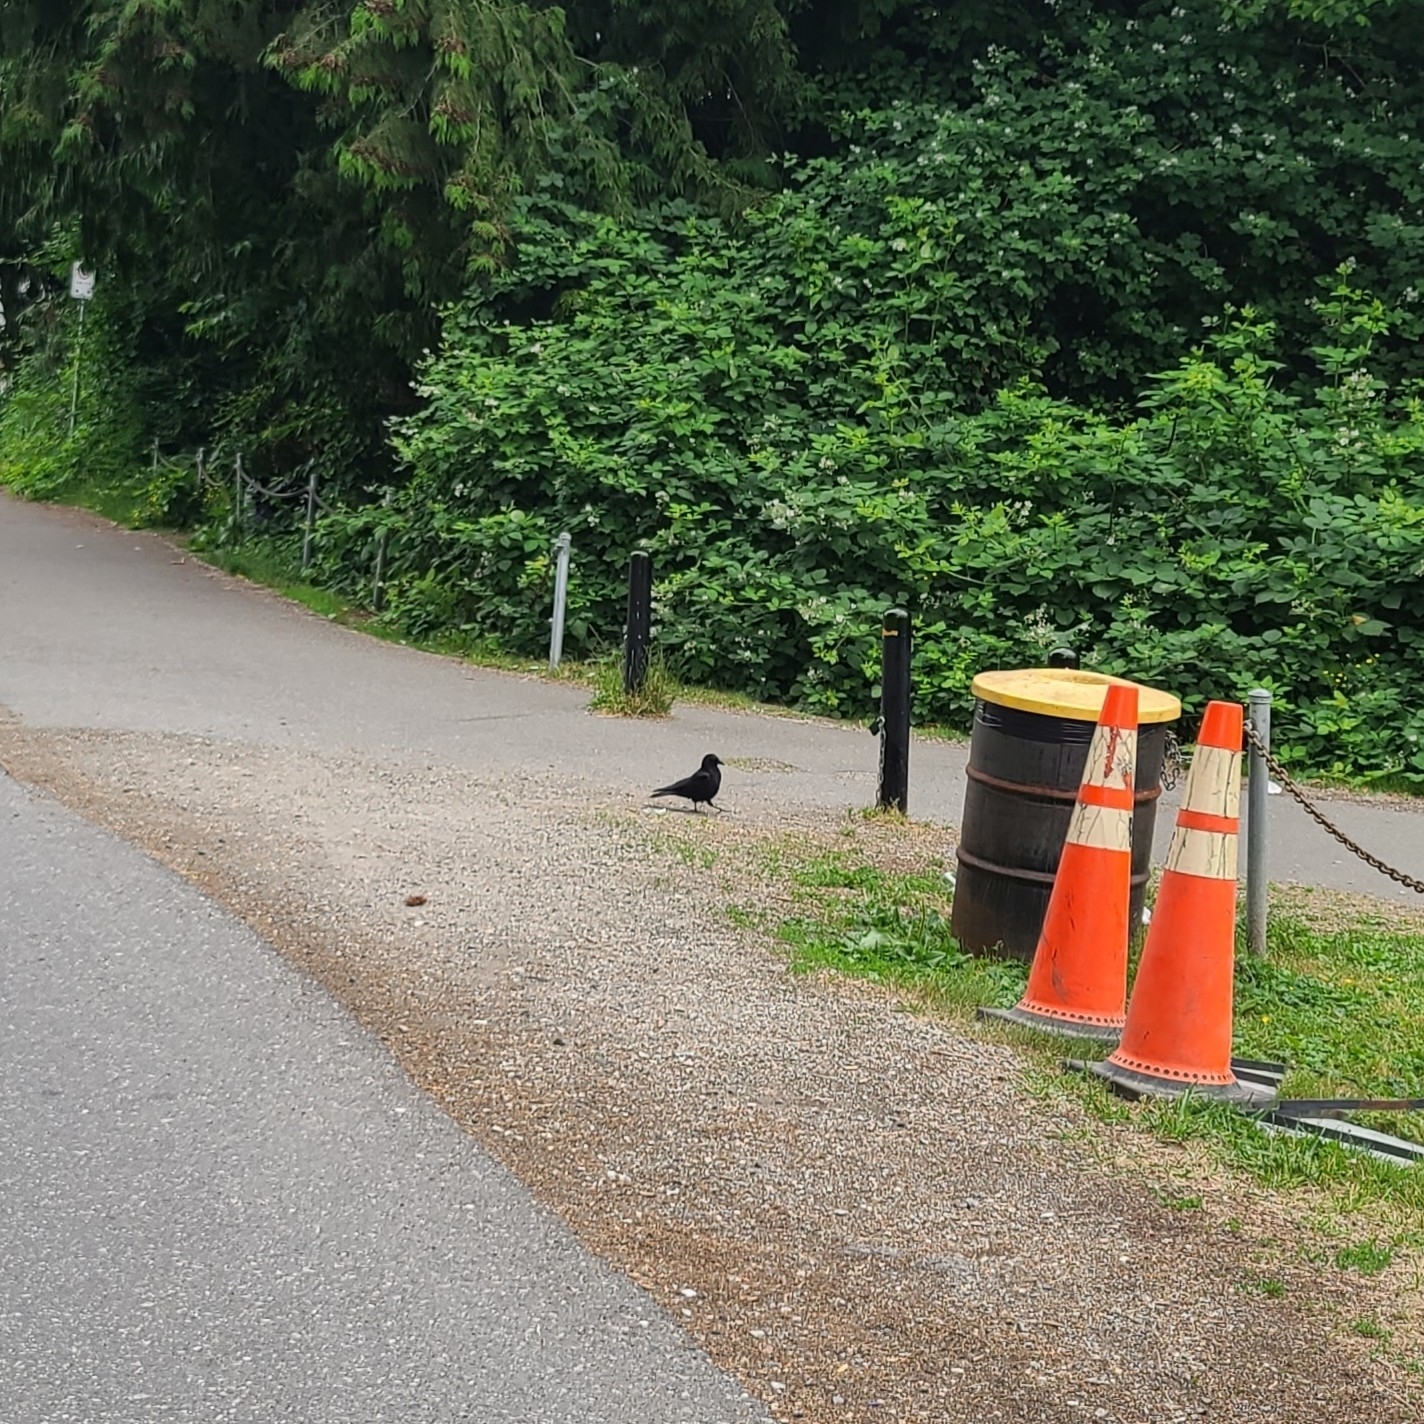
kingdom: Animalia
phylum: Chordata
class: Aves
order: Passeriformes
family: Corvidae
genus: Corvus
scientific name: Corvus brachyrhynchos
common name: American crow
